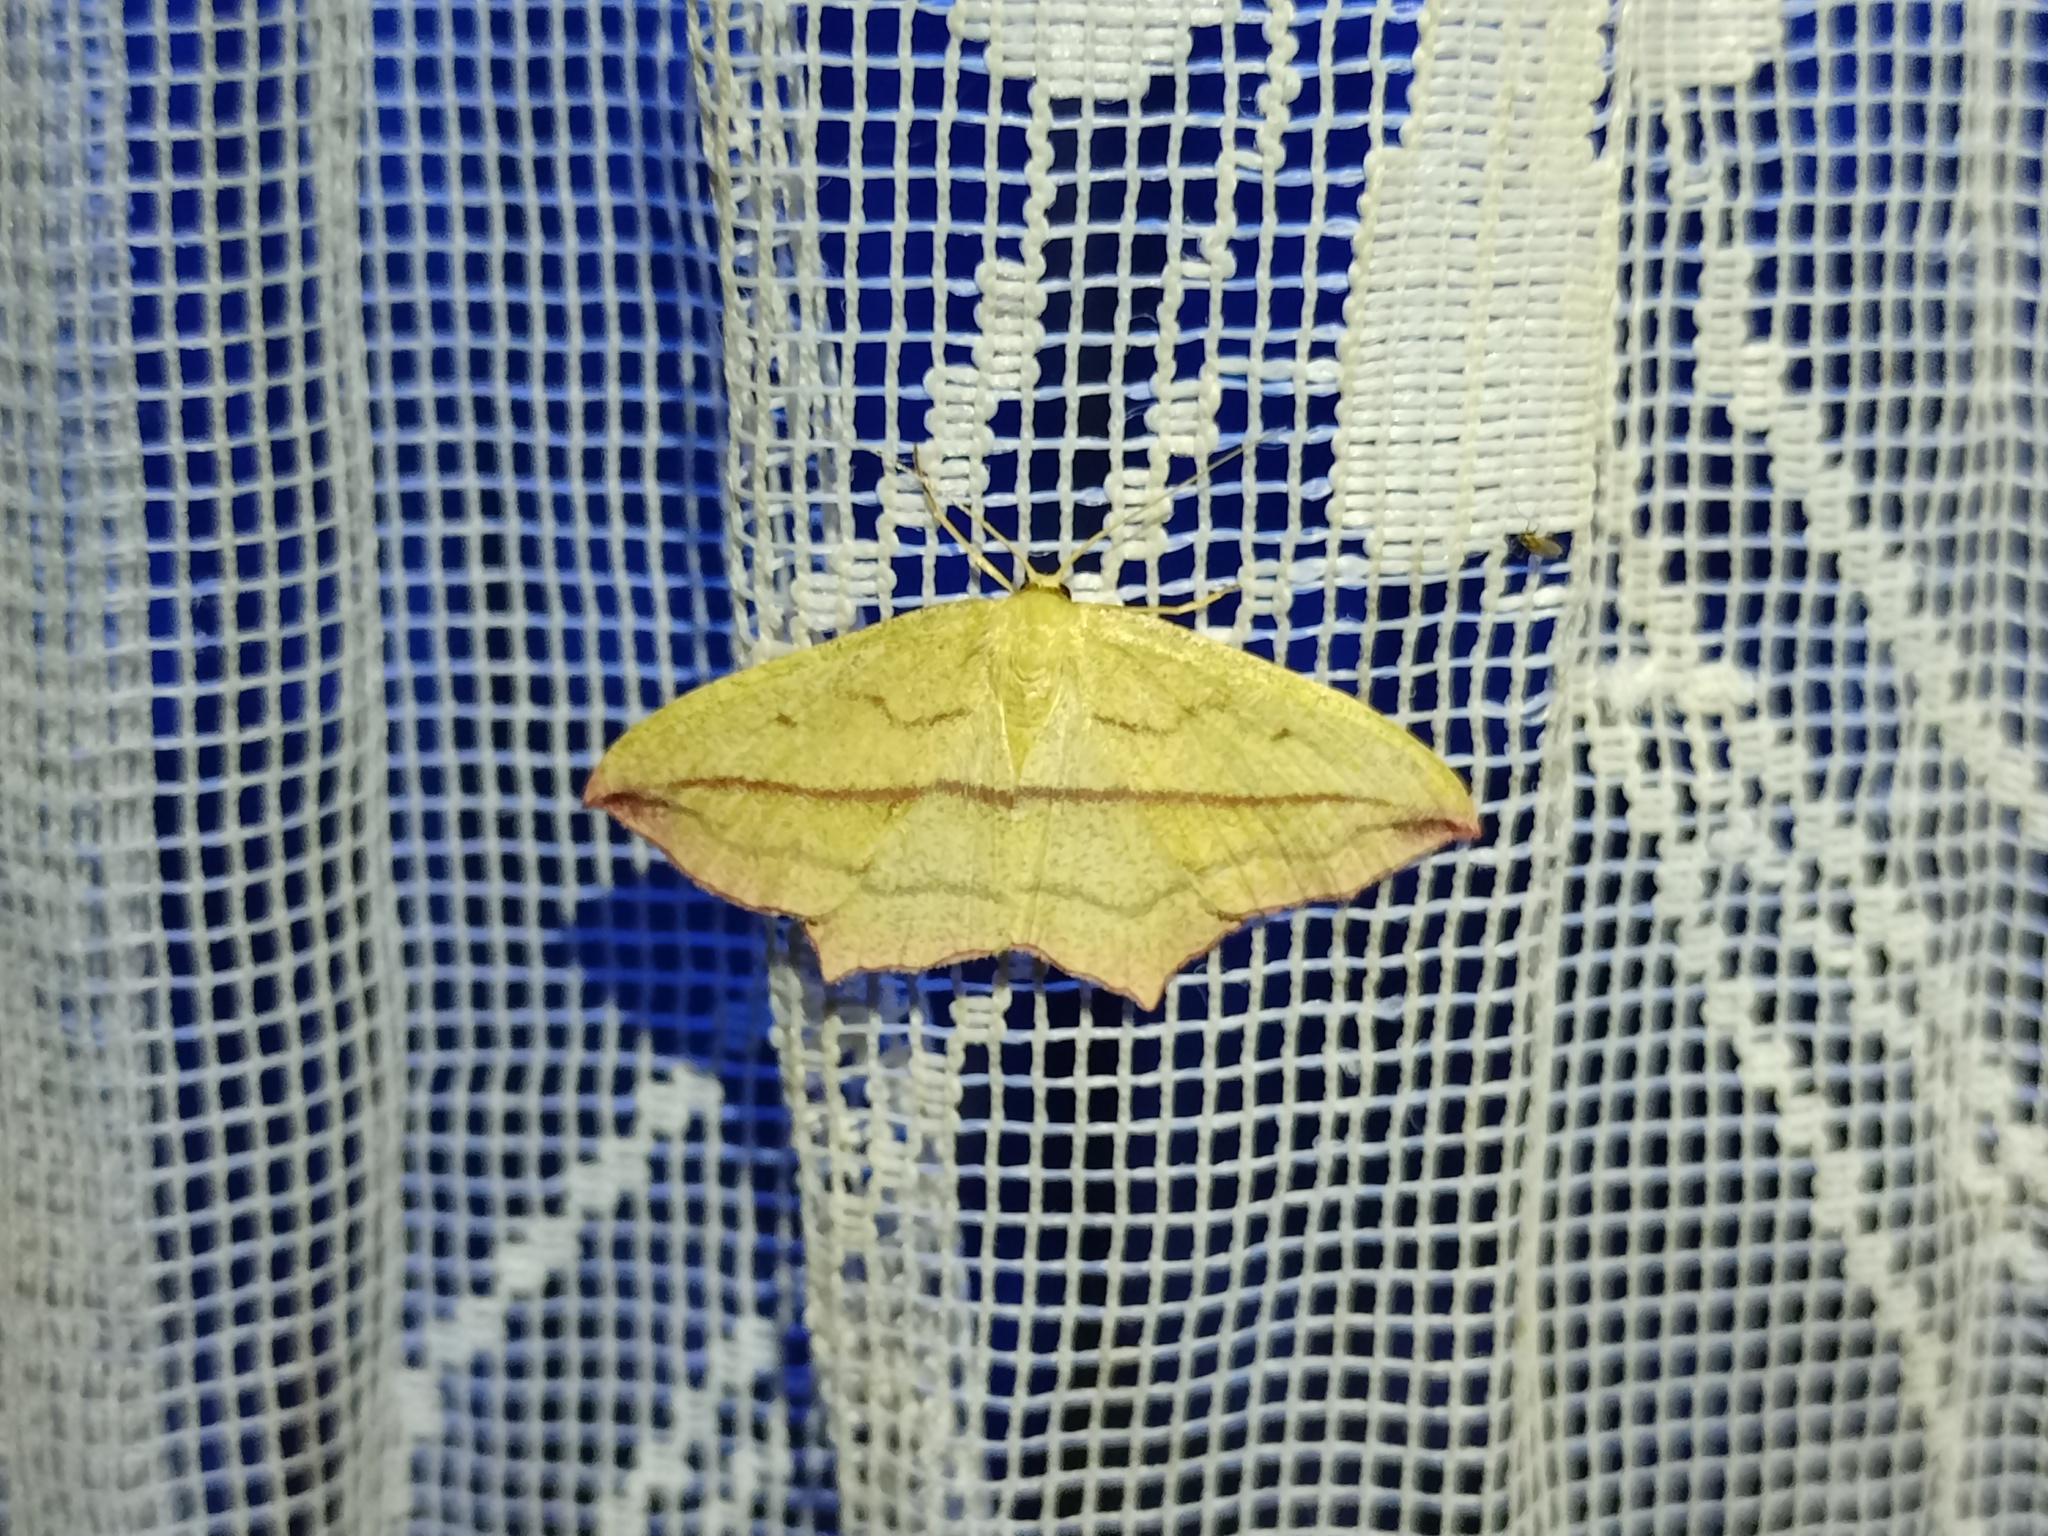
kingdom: Animalia
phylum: Arthropoda
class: Insecta
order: Lepidoptera
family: Geometridae
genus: Timandra
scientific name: Timandra comae
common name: Blood-vein
